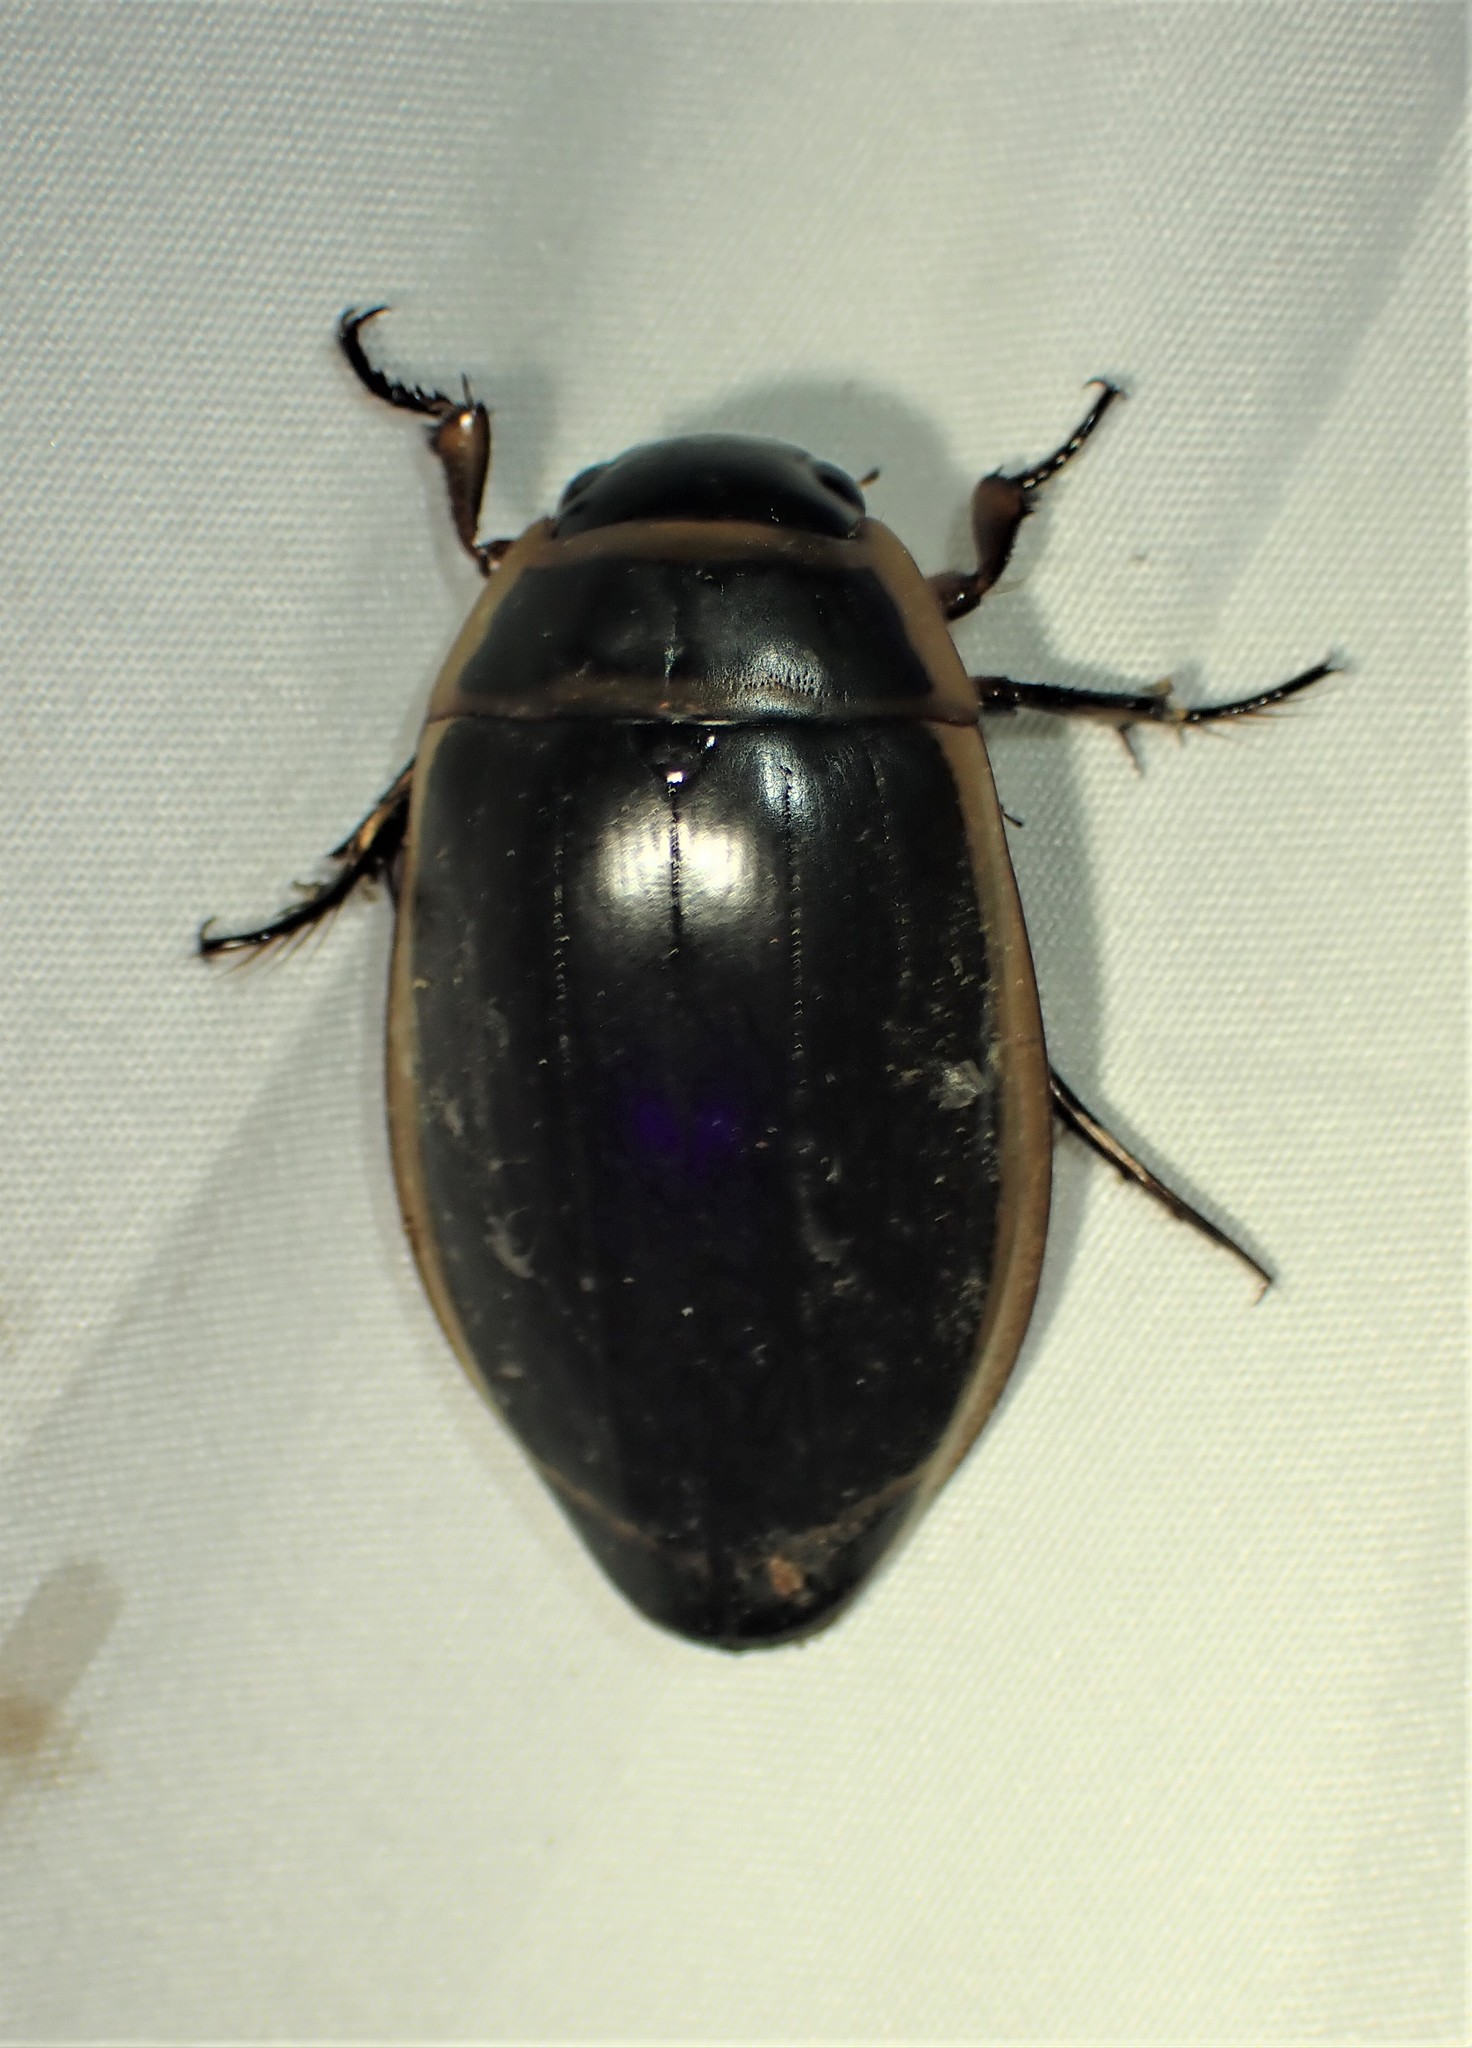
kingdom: Animalia
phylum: Arthropoda
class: Insecta
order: Coleoptera
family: Dytiscidae
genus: Dytiscus
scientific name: Dytiscus harrisii
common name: Harris's diving beetle
